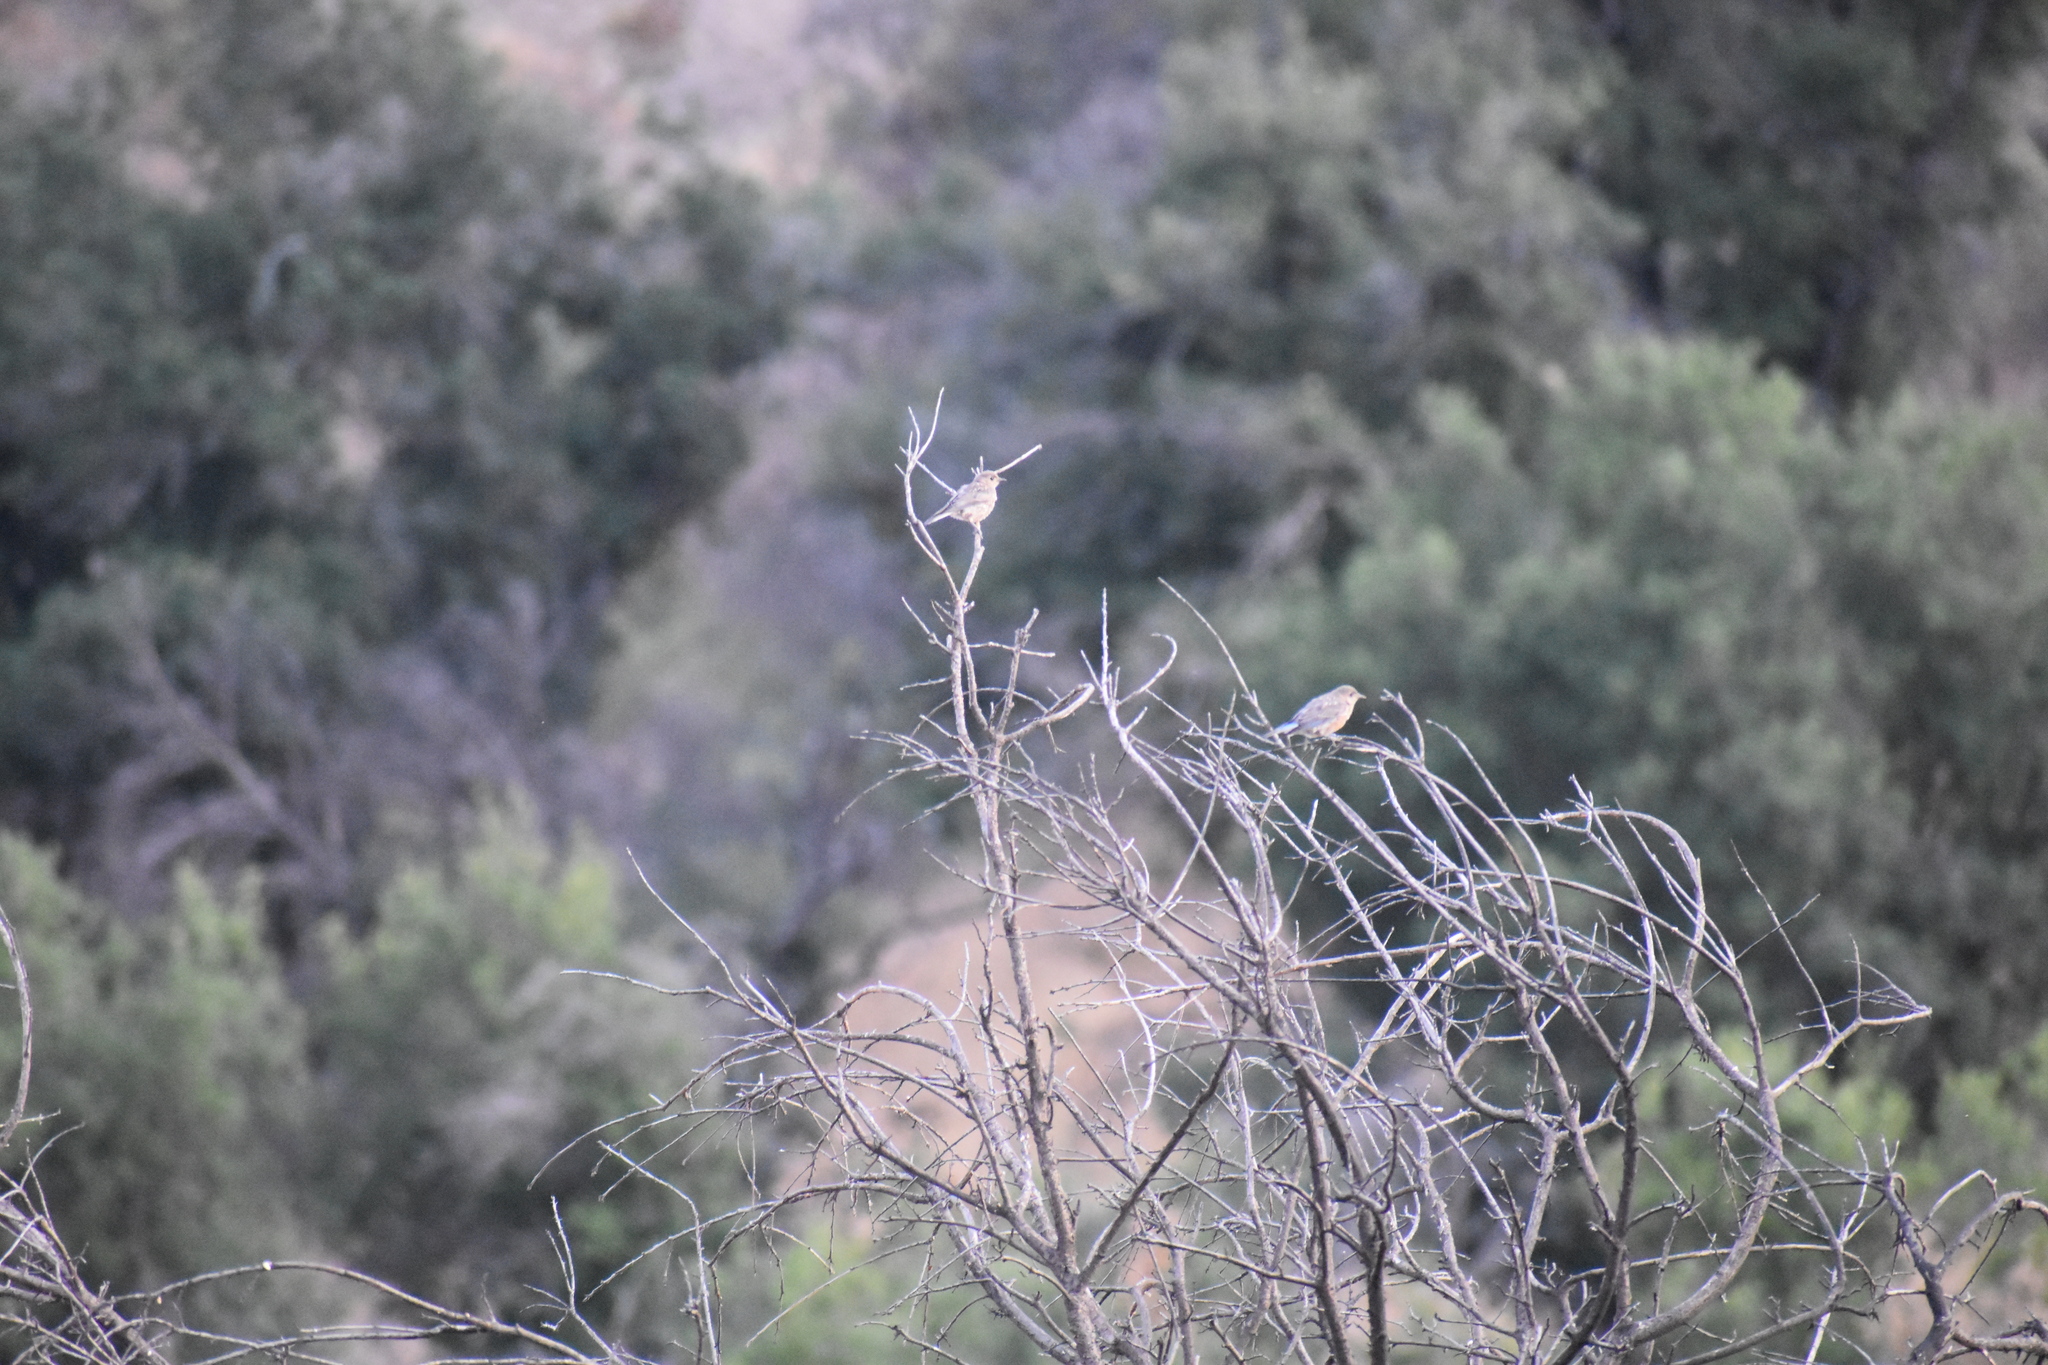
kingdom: Animalia
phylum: Chordata
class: Aves
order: Passeriformes
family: Turdidae
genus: Sialia
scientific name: Sialia mexicana
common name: Western bluebird
